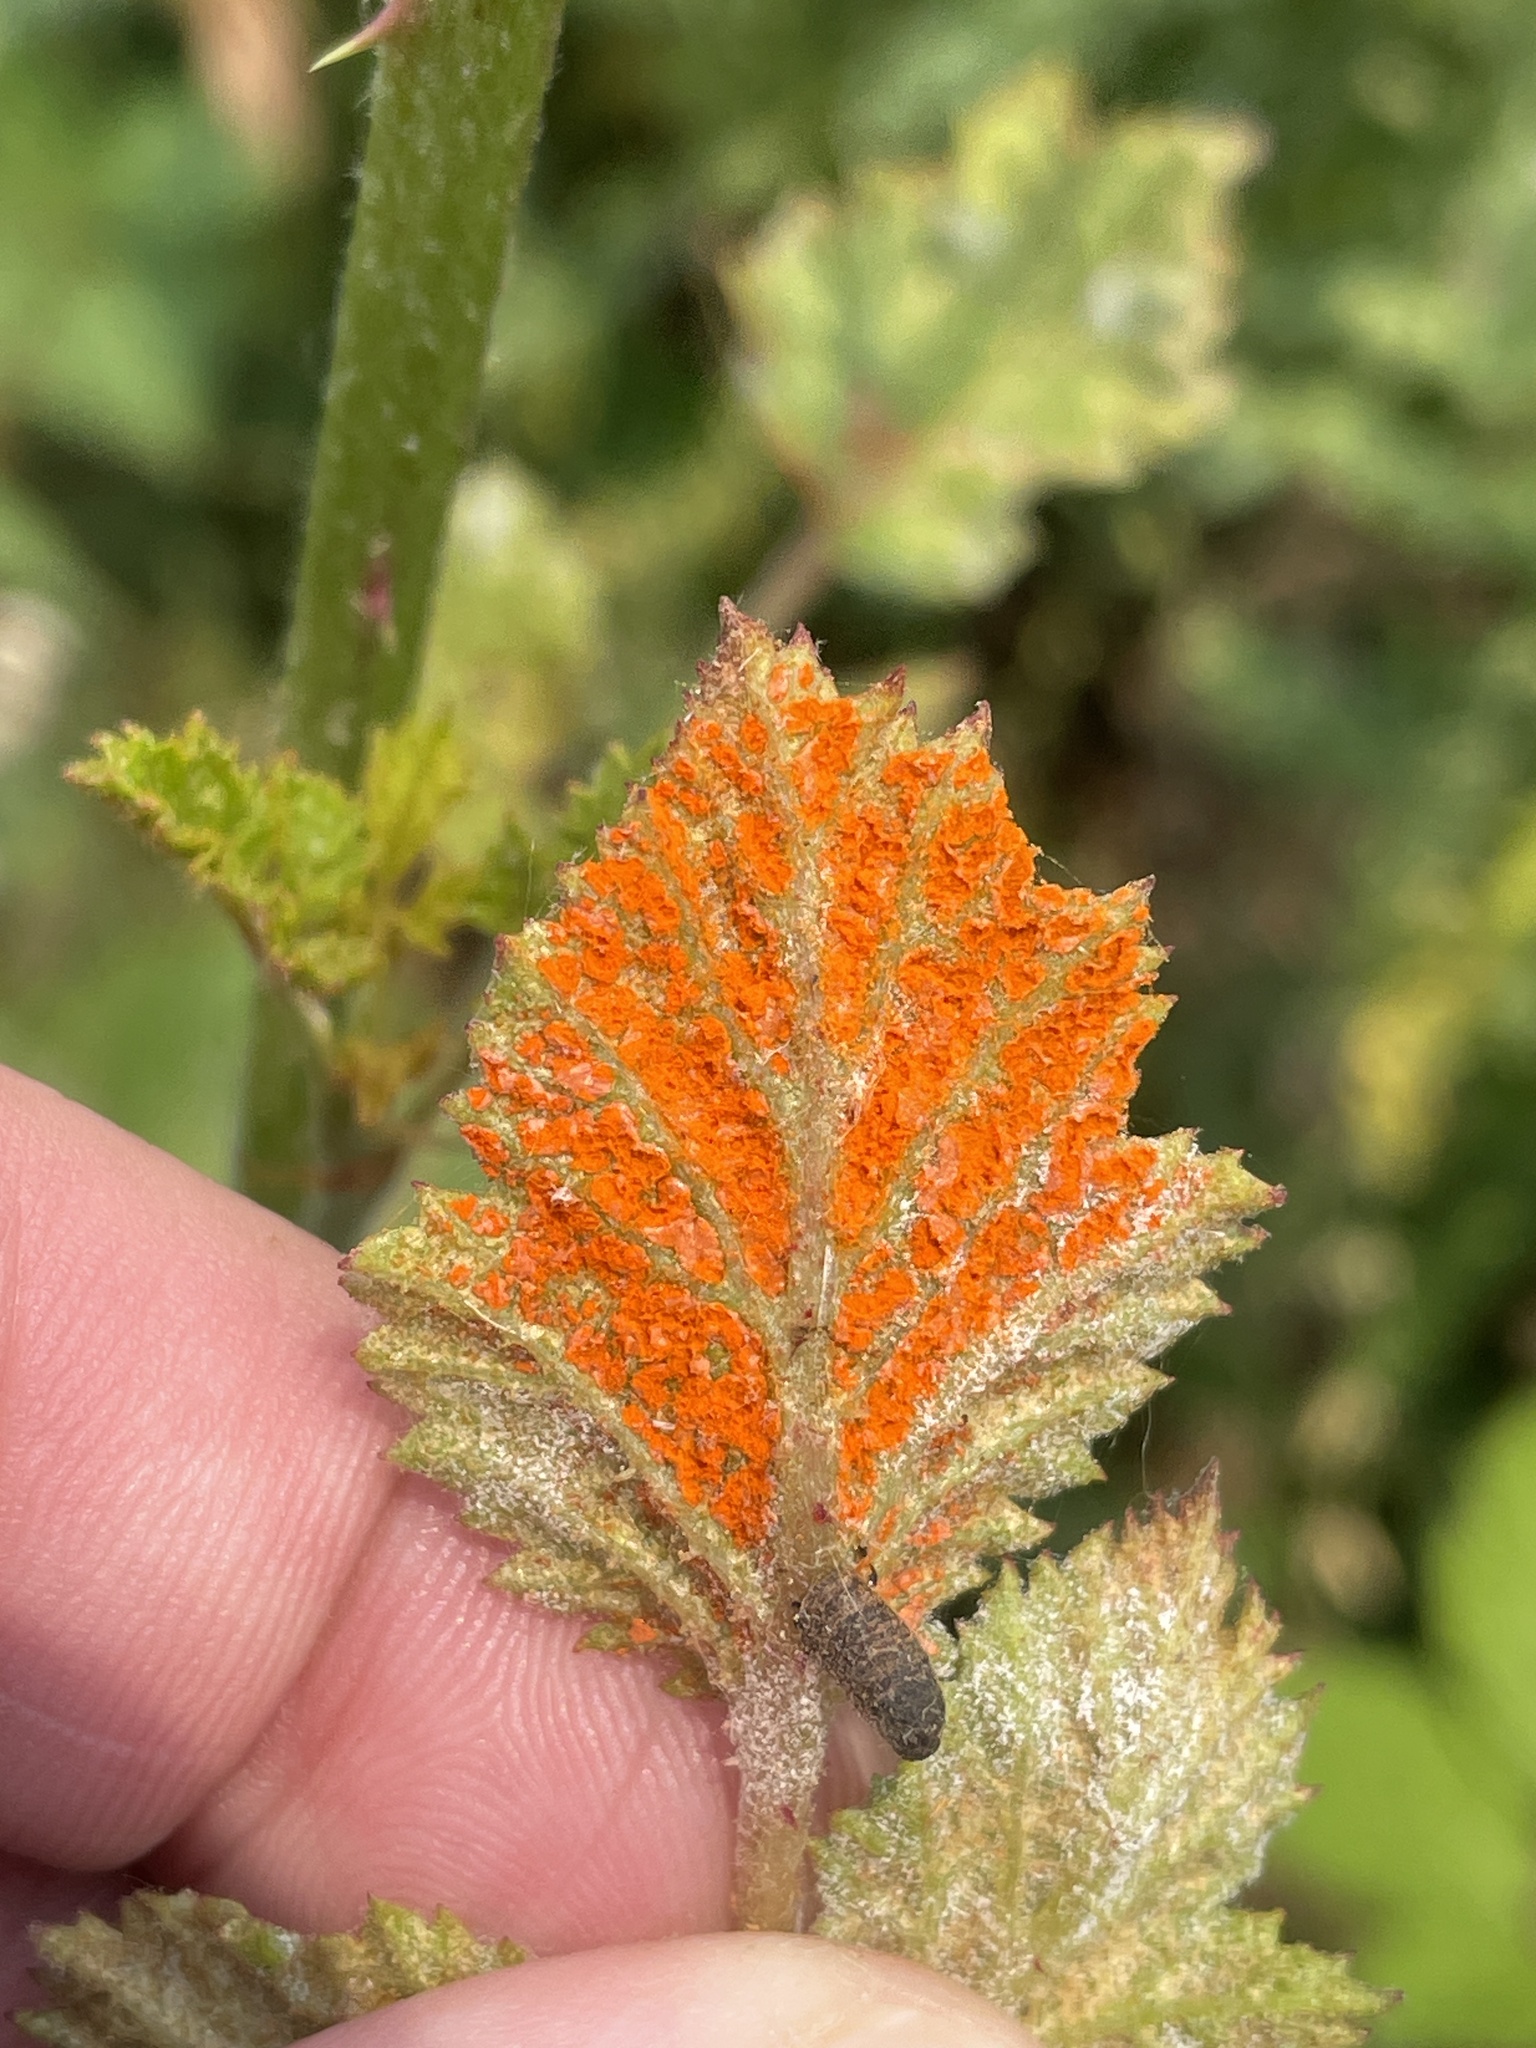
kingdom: Fungi
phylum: Basidiomycota
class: Pucciniomycetes
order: Pucciniales
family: Phragmidiaceae
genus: Arthuriomyces
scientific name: Arthuriomyces peckianus
